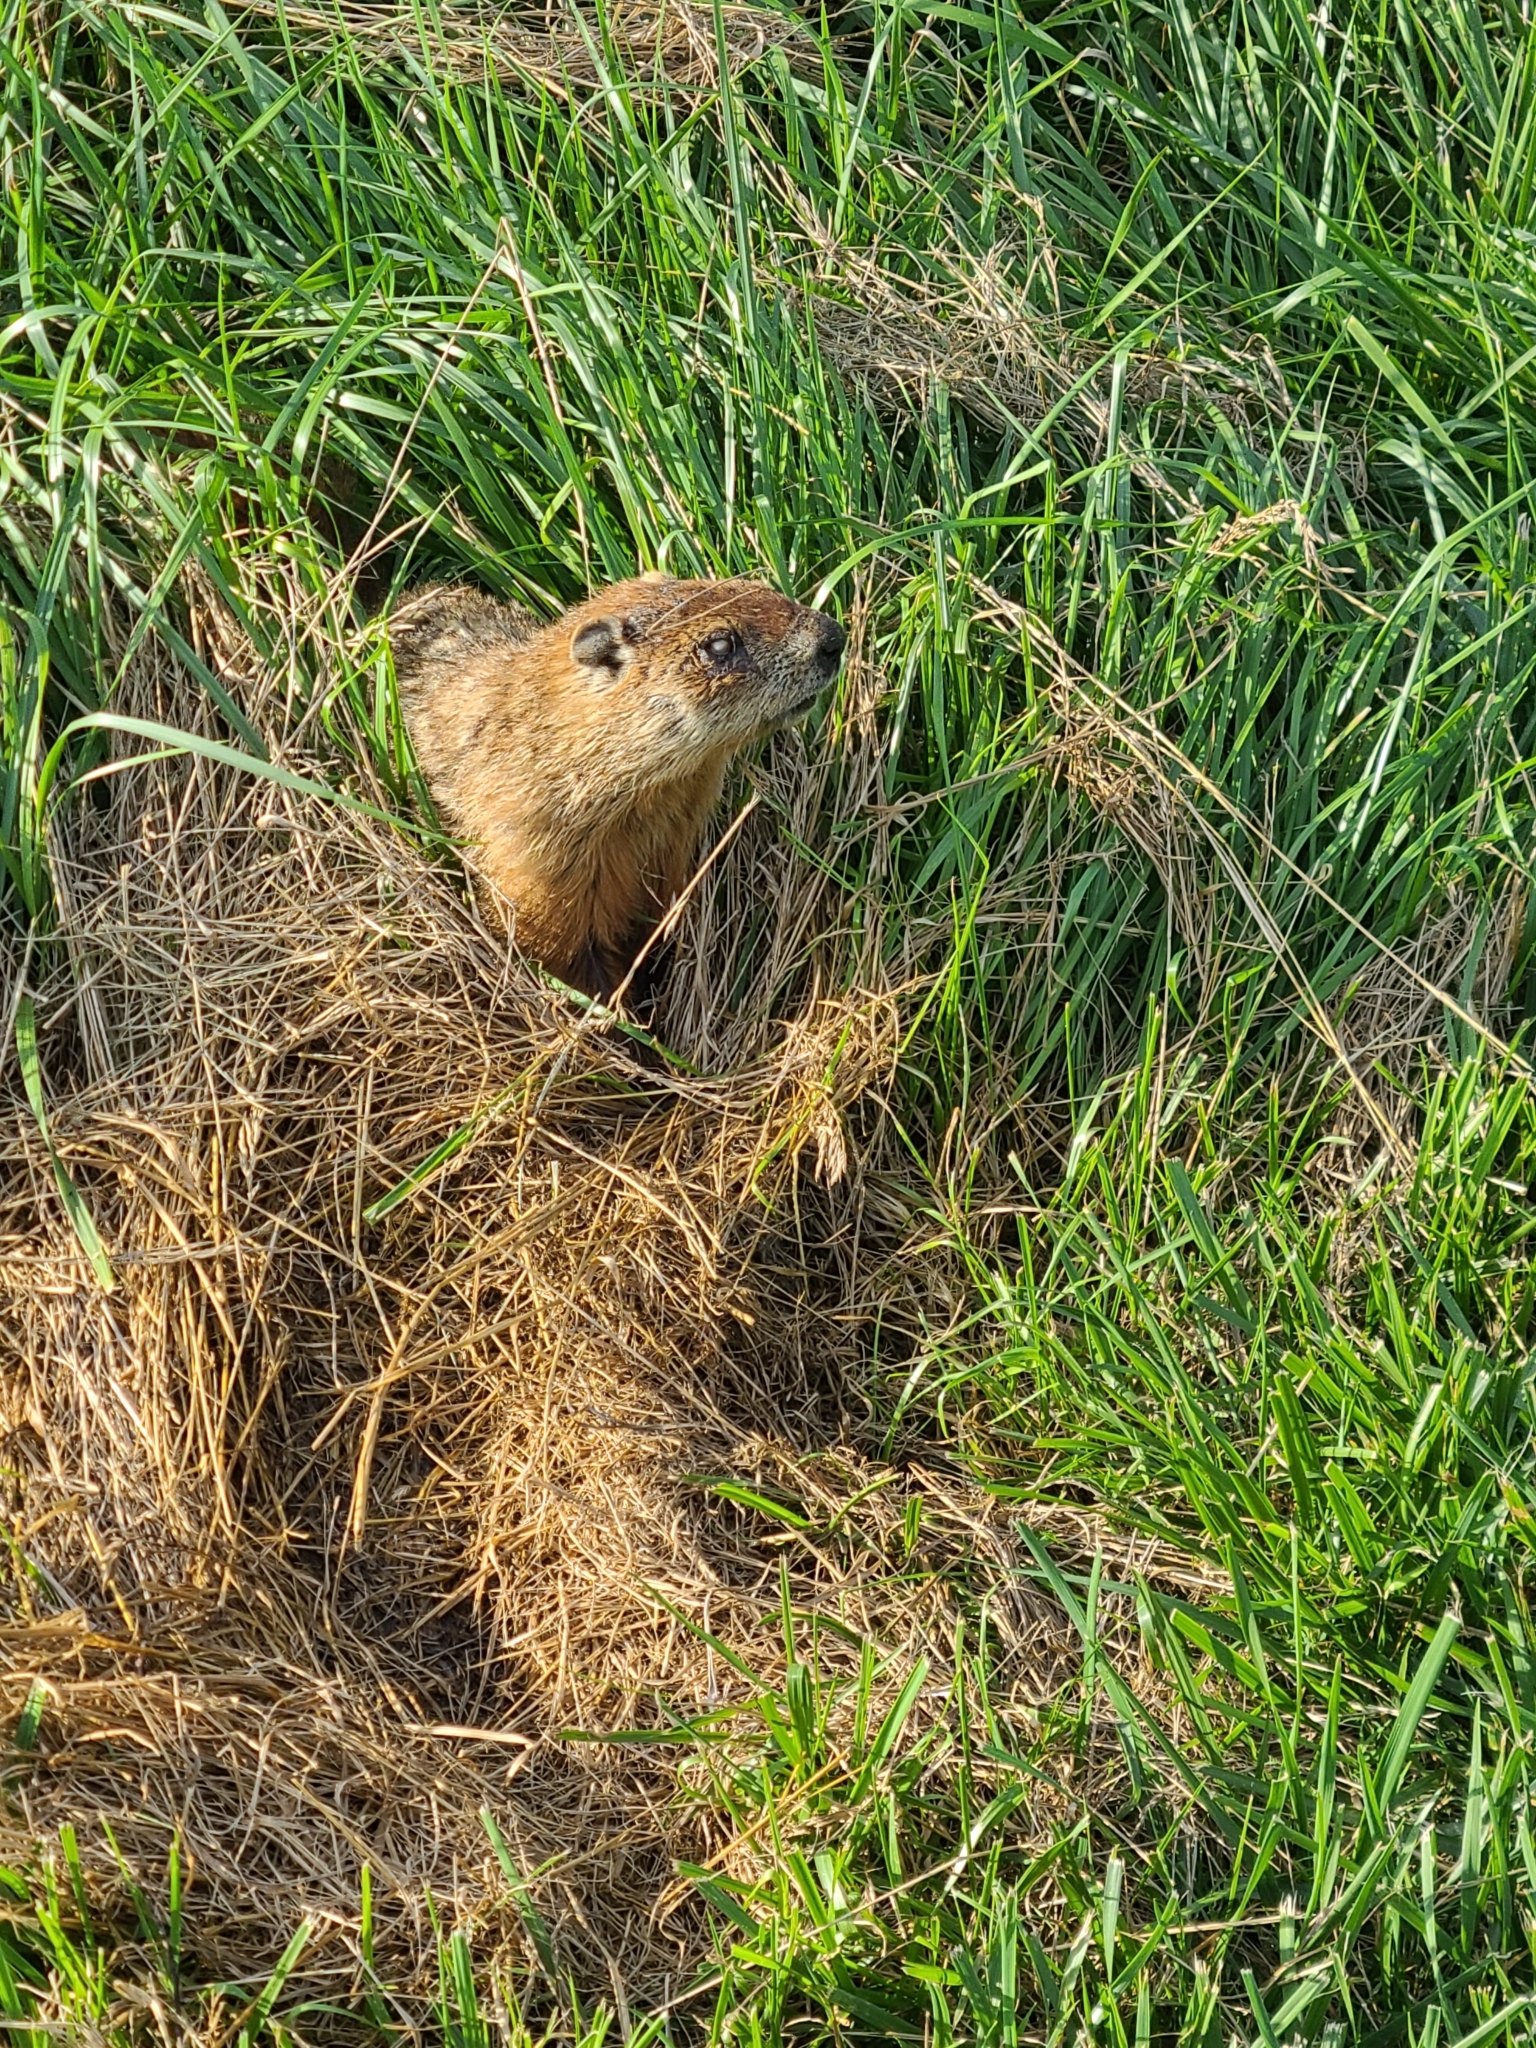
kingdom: Animalia
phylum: Chordata
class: Mammalia
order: Rodentia
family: Sciuridae
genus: Marmota
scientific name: Marmota monax
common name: Groundhog
